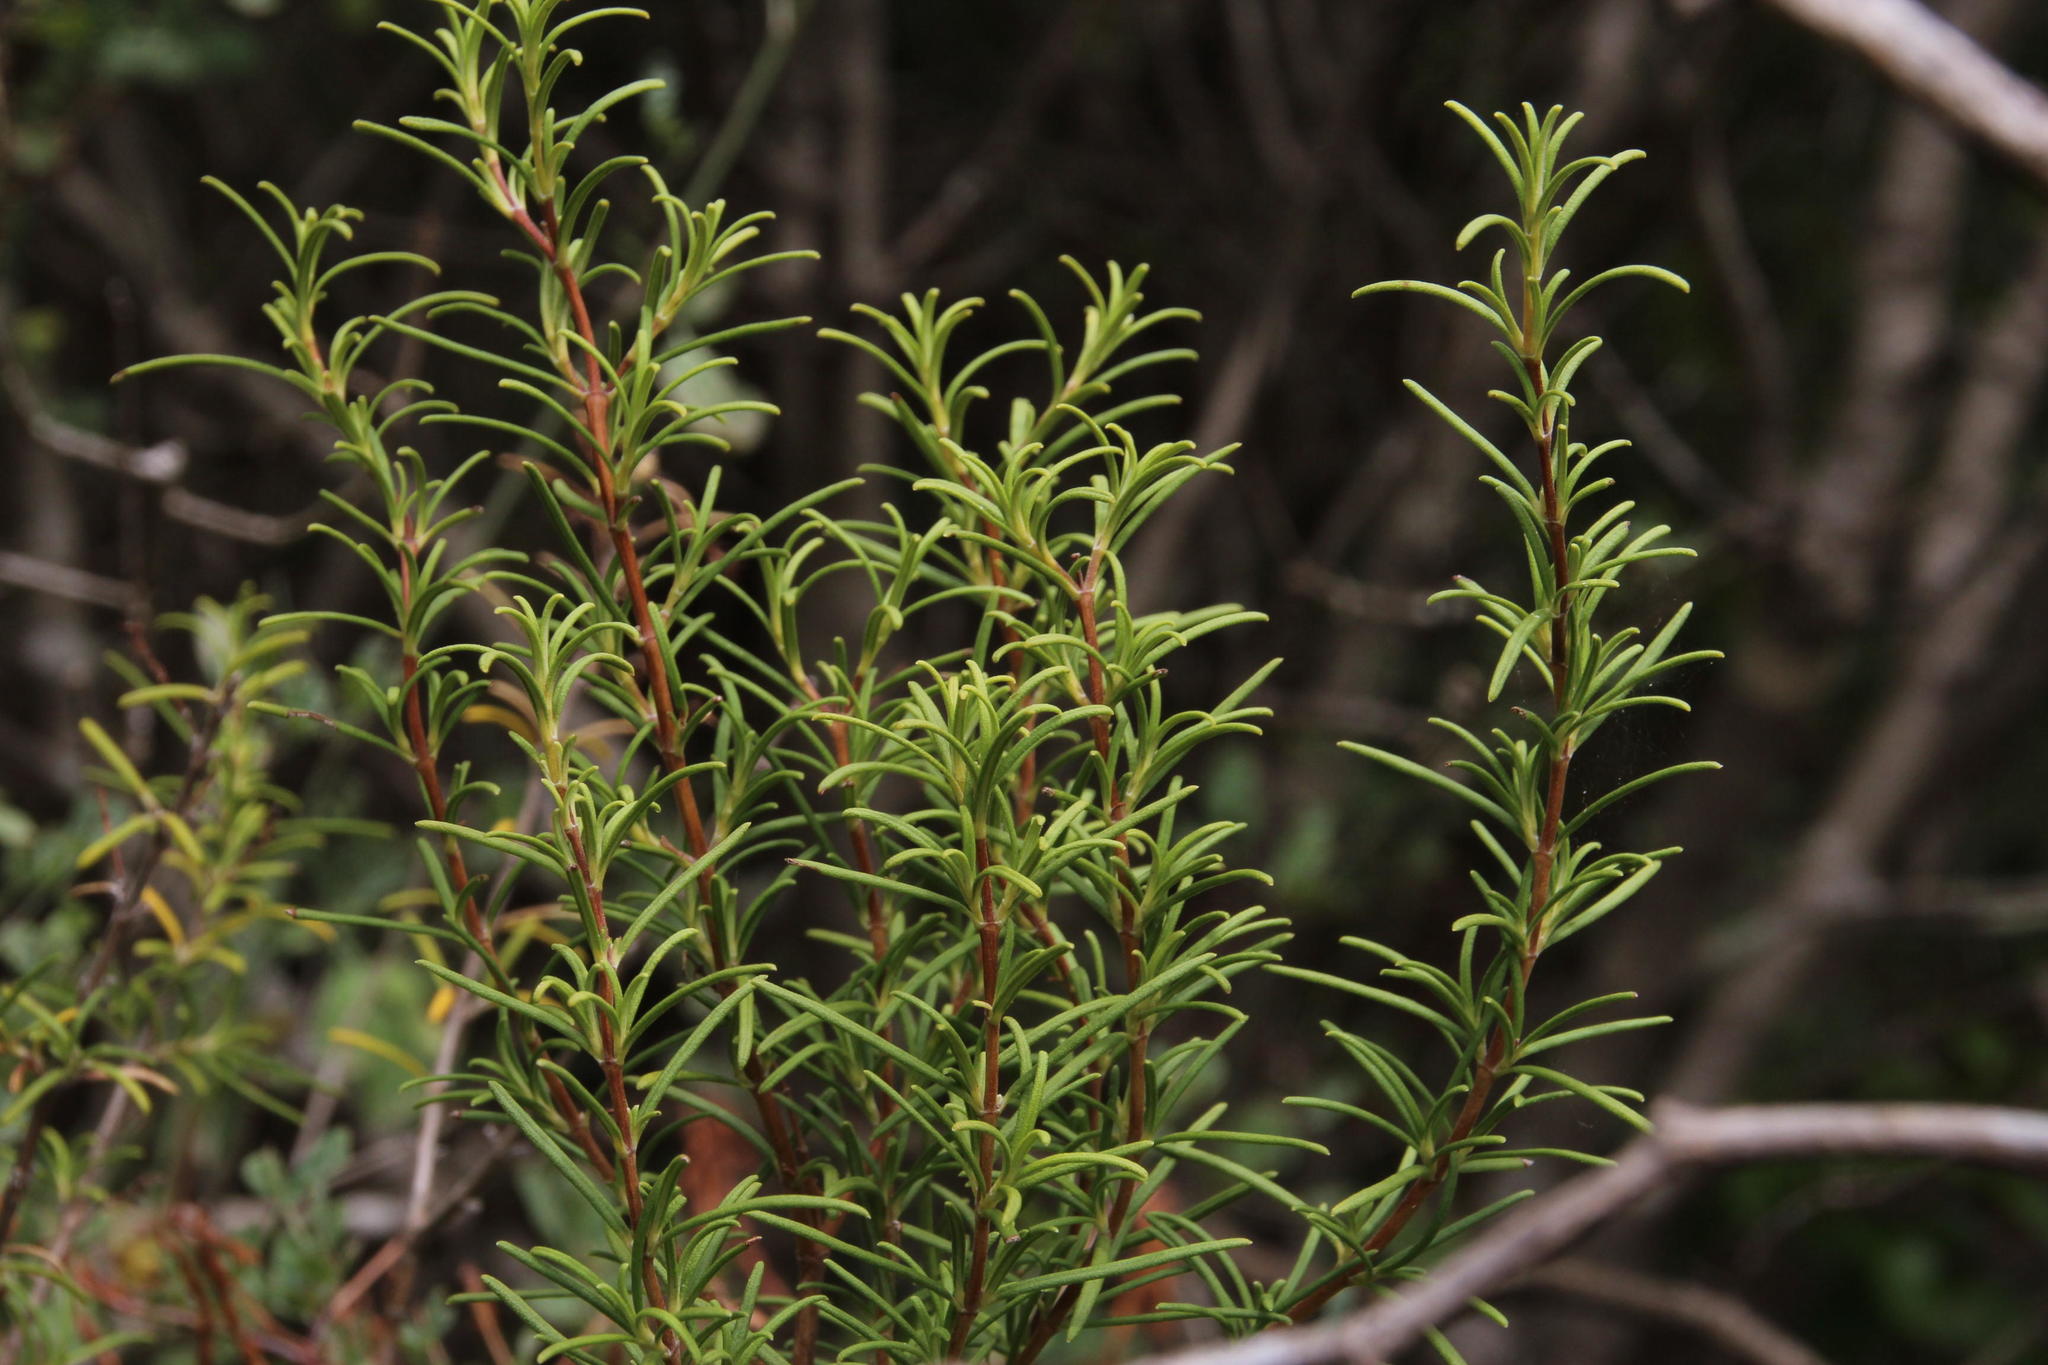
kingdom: Plantae
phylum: Tracheophyta
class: Magnoliopsida
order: Lamiales
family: Lamiaceae
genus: Salvia
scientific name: Salvia rosmarinus
